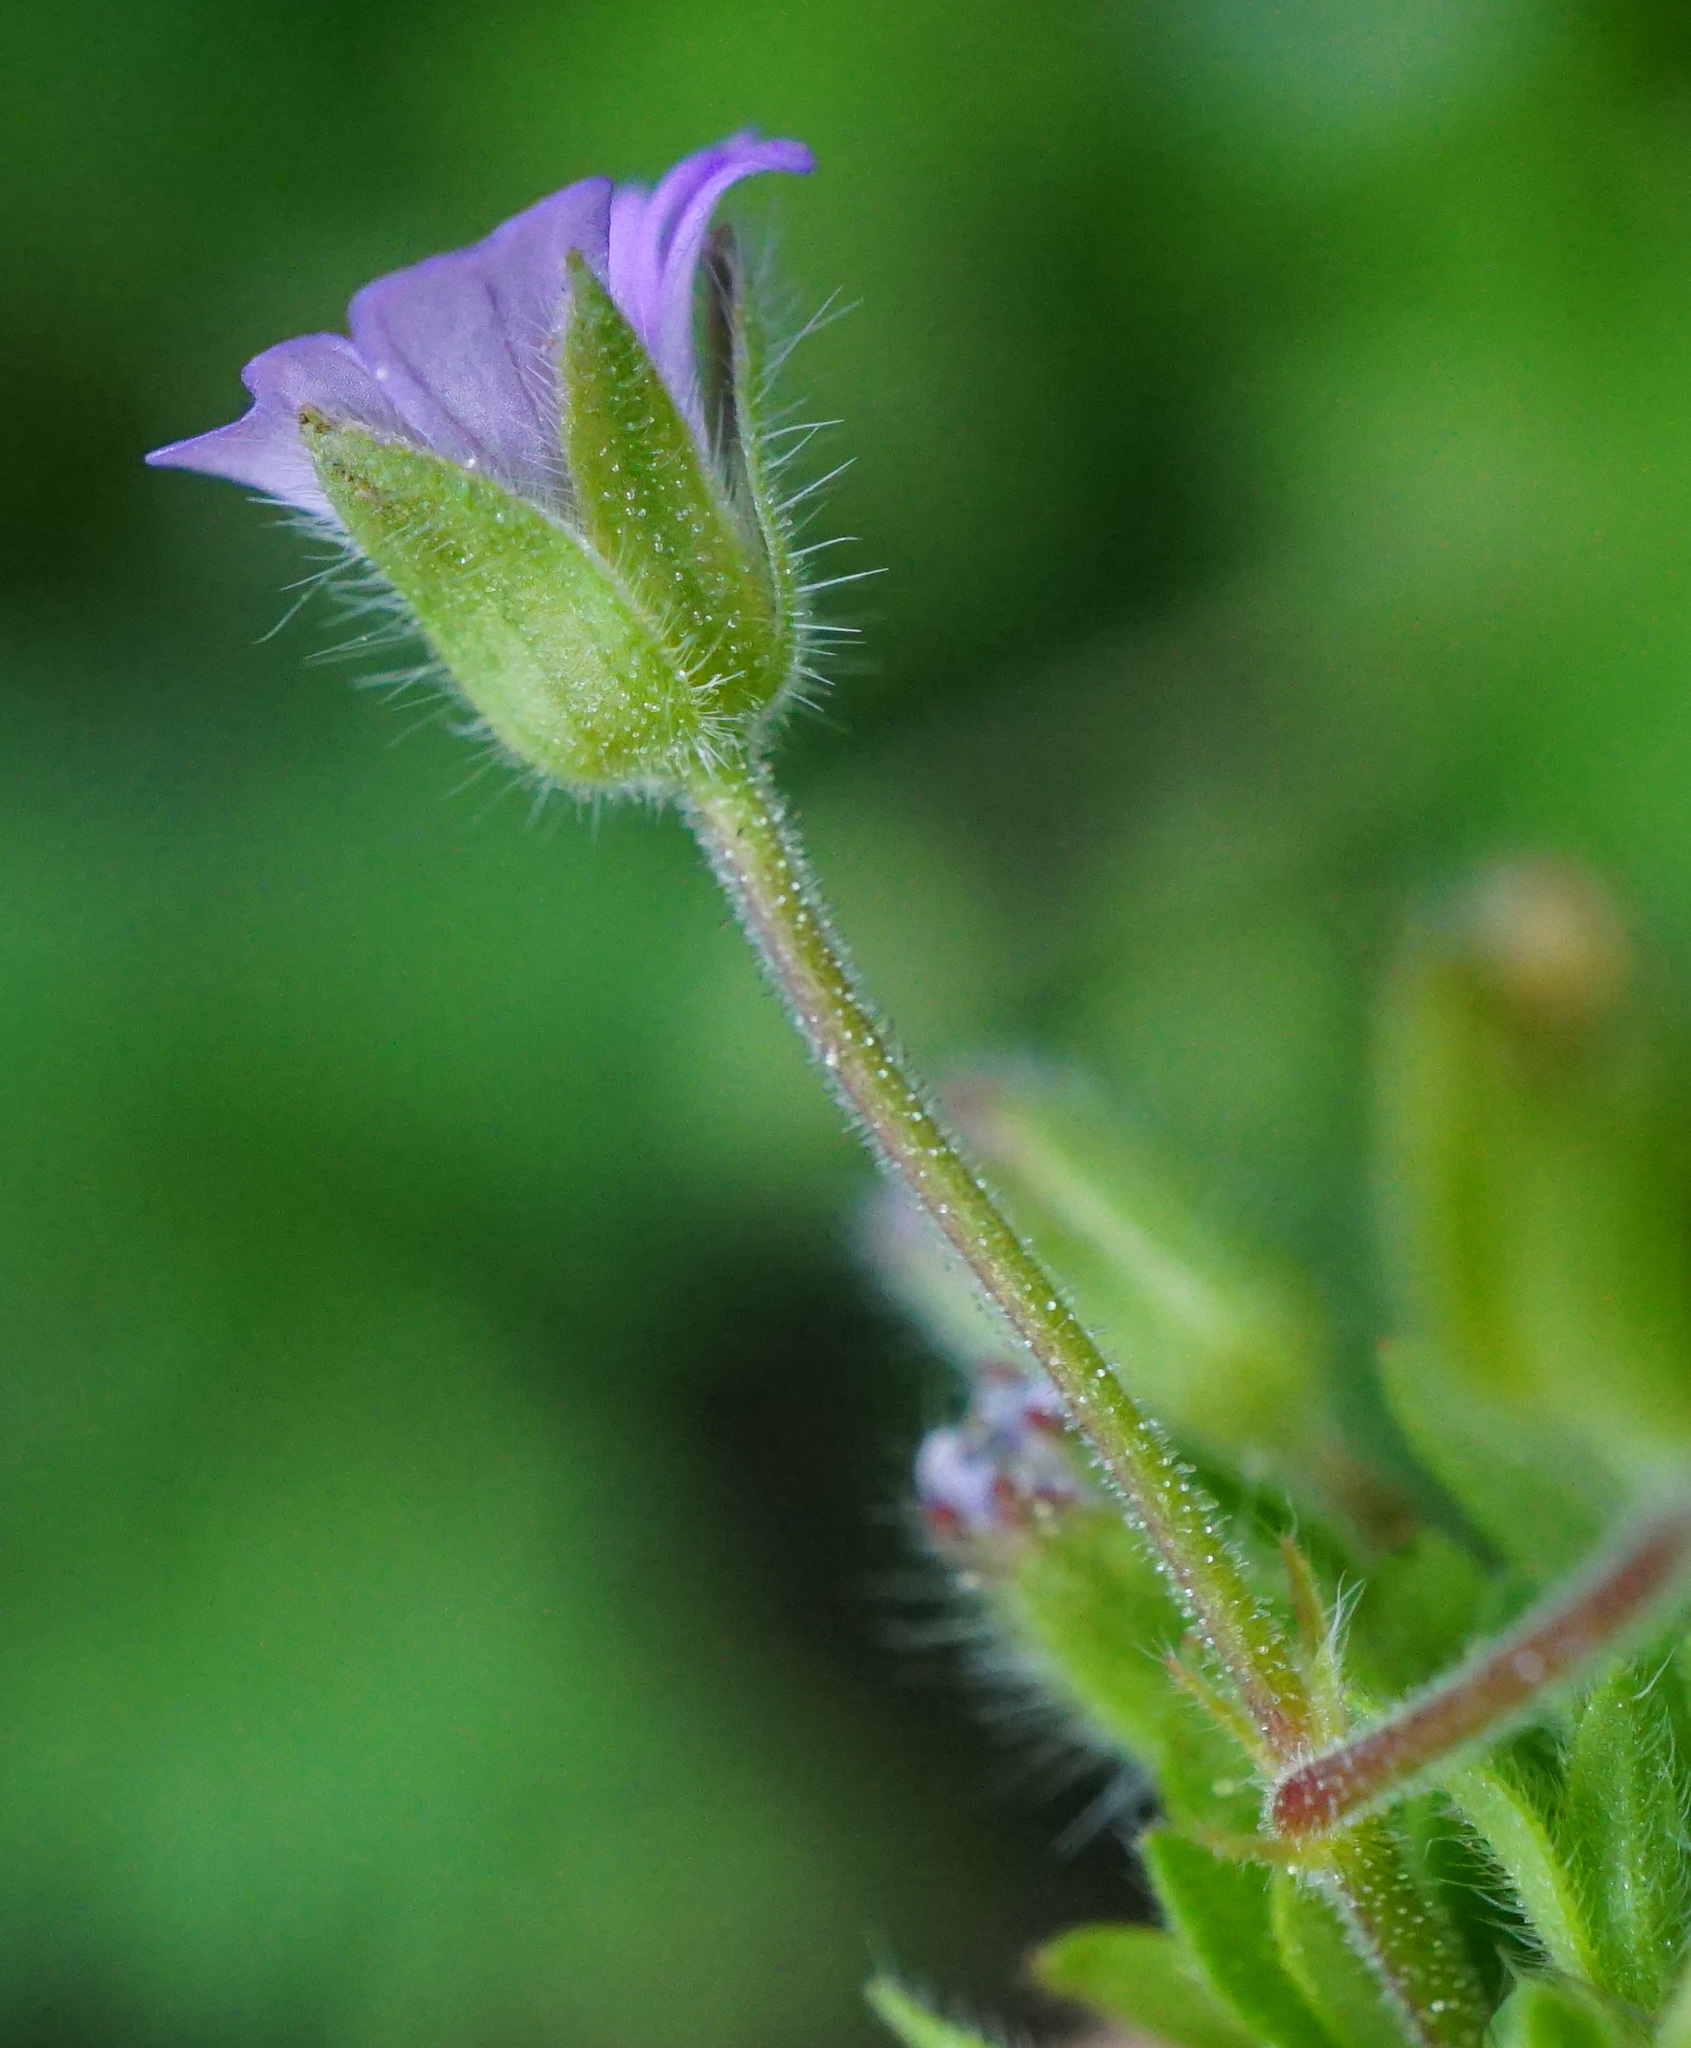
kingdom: Plantae
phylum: Tracheophyta
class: Magnoliopsida
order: Geraniales
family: Geraniaceae
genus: Geranium
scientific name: Geranium pusillum
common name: Small geranium
